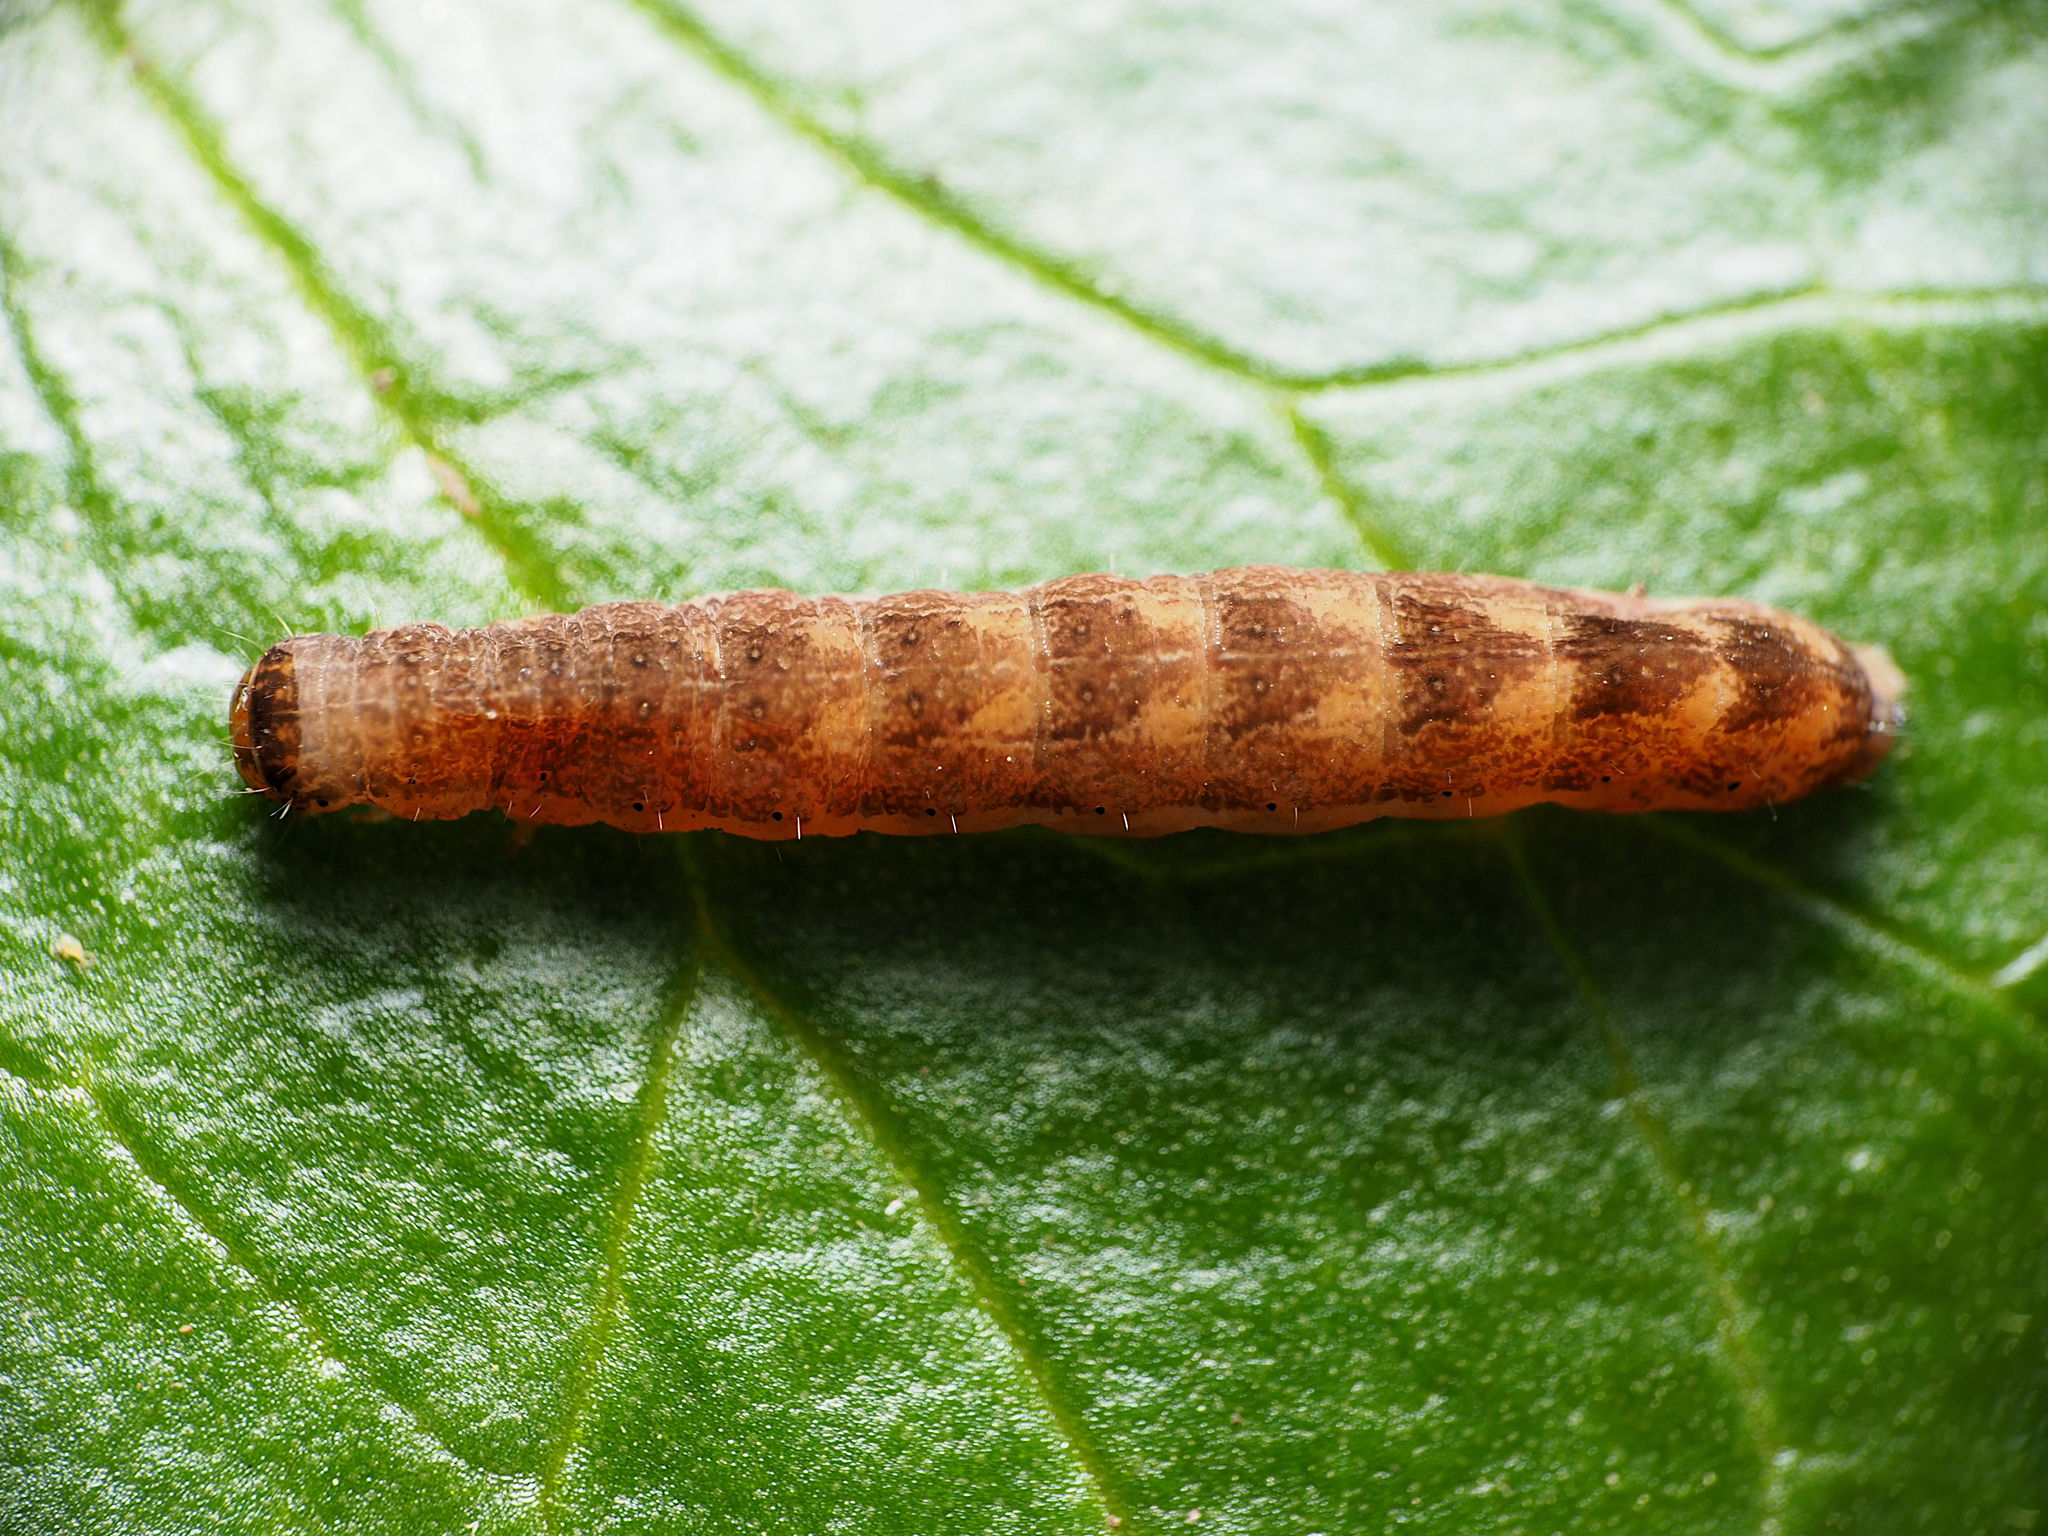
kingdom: Animalia
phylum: Arthropoda
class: Insecta
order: Lepidoptera
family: Noctuidae
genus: Agrochola
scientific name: Agrochola bicolorago
